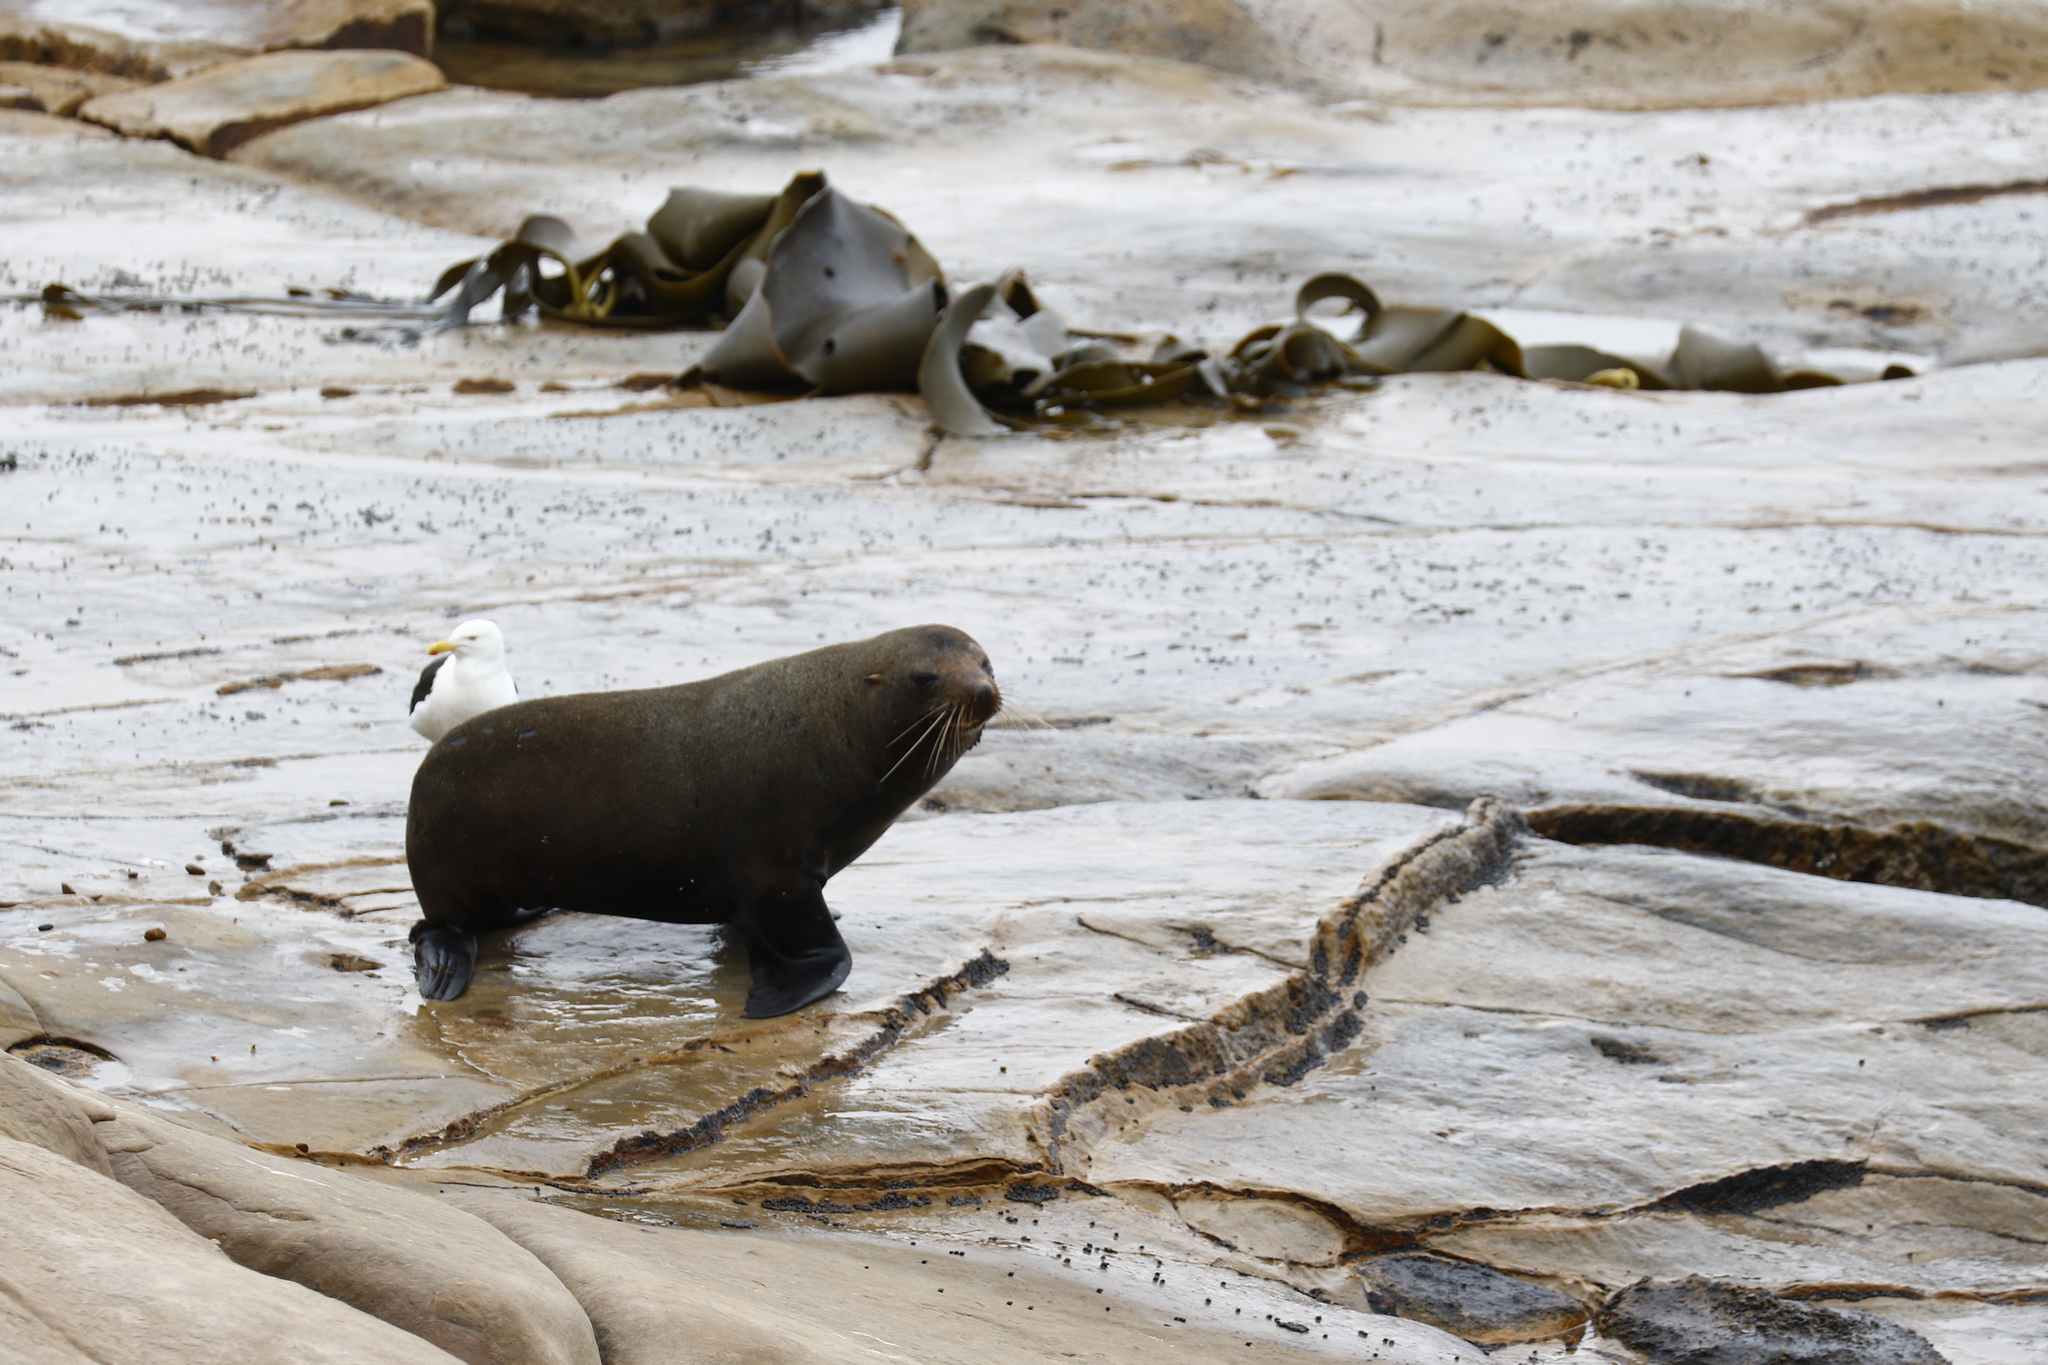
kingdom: Animalia
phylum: Chordata
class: Mammalia
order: Carnivora
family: Otariidae
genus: Arctocephalus
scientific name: Arctocephalus forsteri
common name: New zealand fur seal
